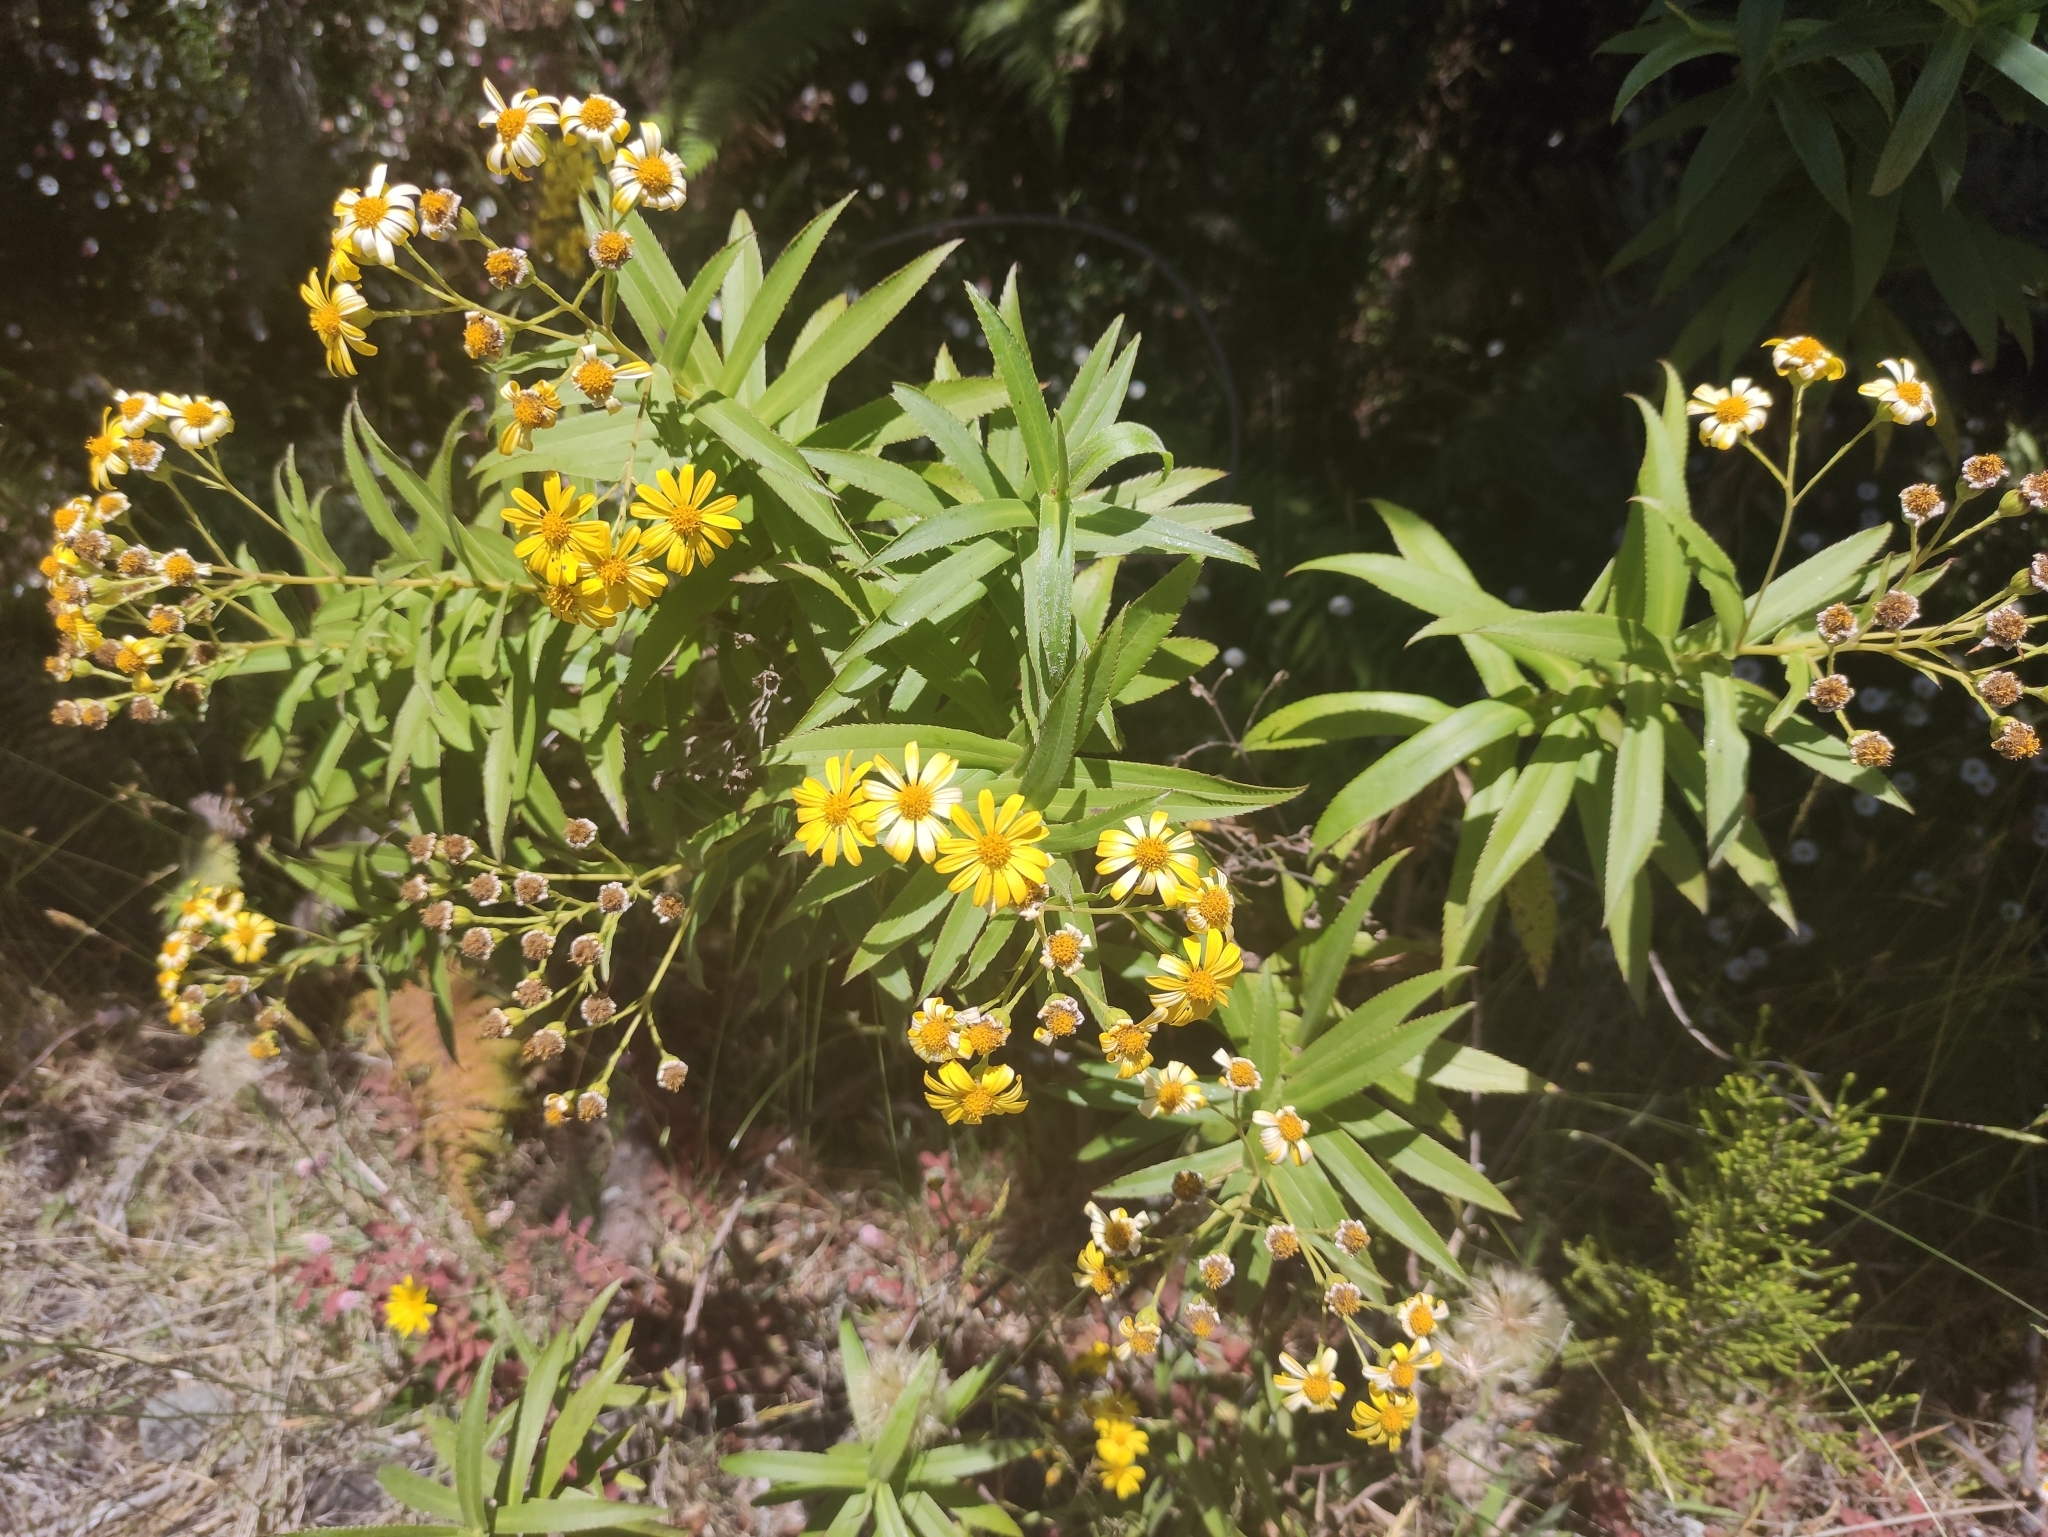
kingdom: Plantae
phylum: Tracheophyta
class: Magnoliopsida
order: Asterales
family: Asteraceae
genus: Faujasia
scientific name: Faujasia salicifolia
